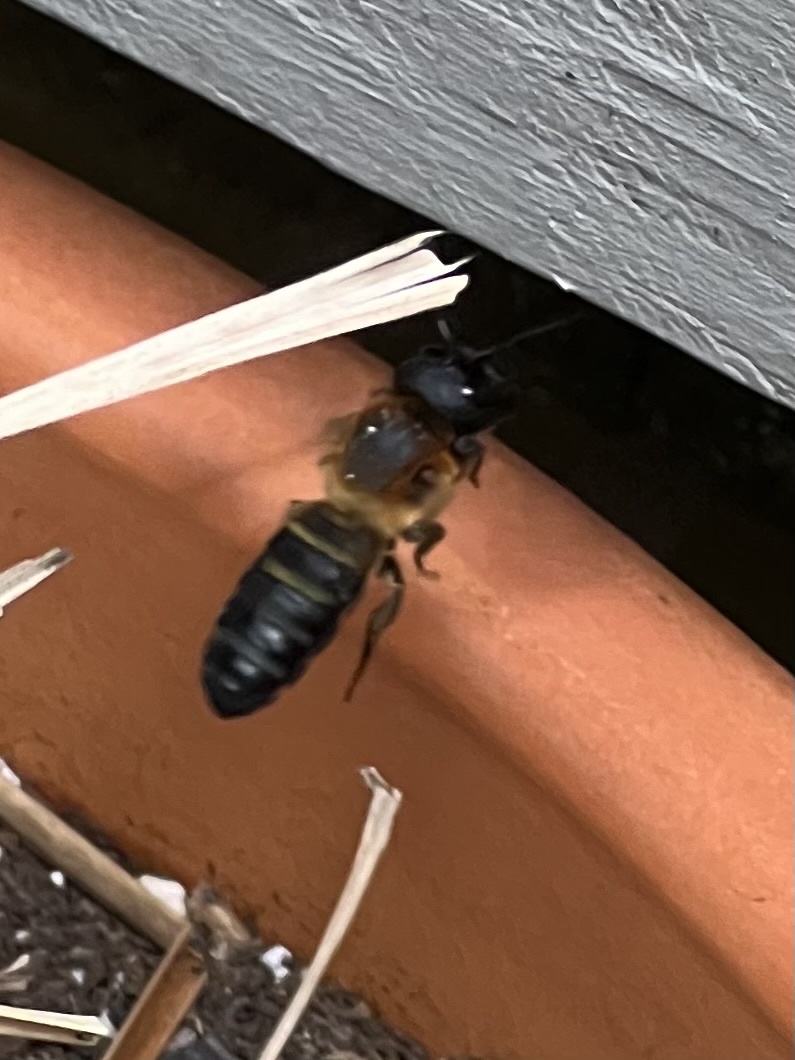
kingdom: Animalia
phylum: Arthropoda
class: Insecta
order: Hymenoptera
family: Megachilidae
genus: Megachile
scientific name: Megachile sculpturalis
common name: Sculptured resin bee
